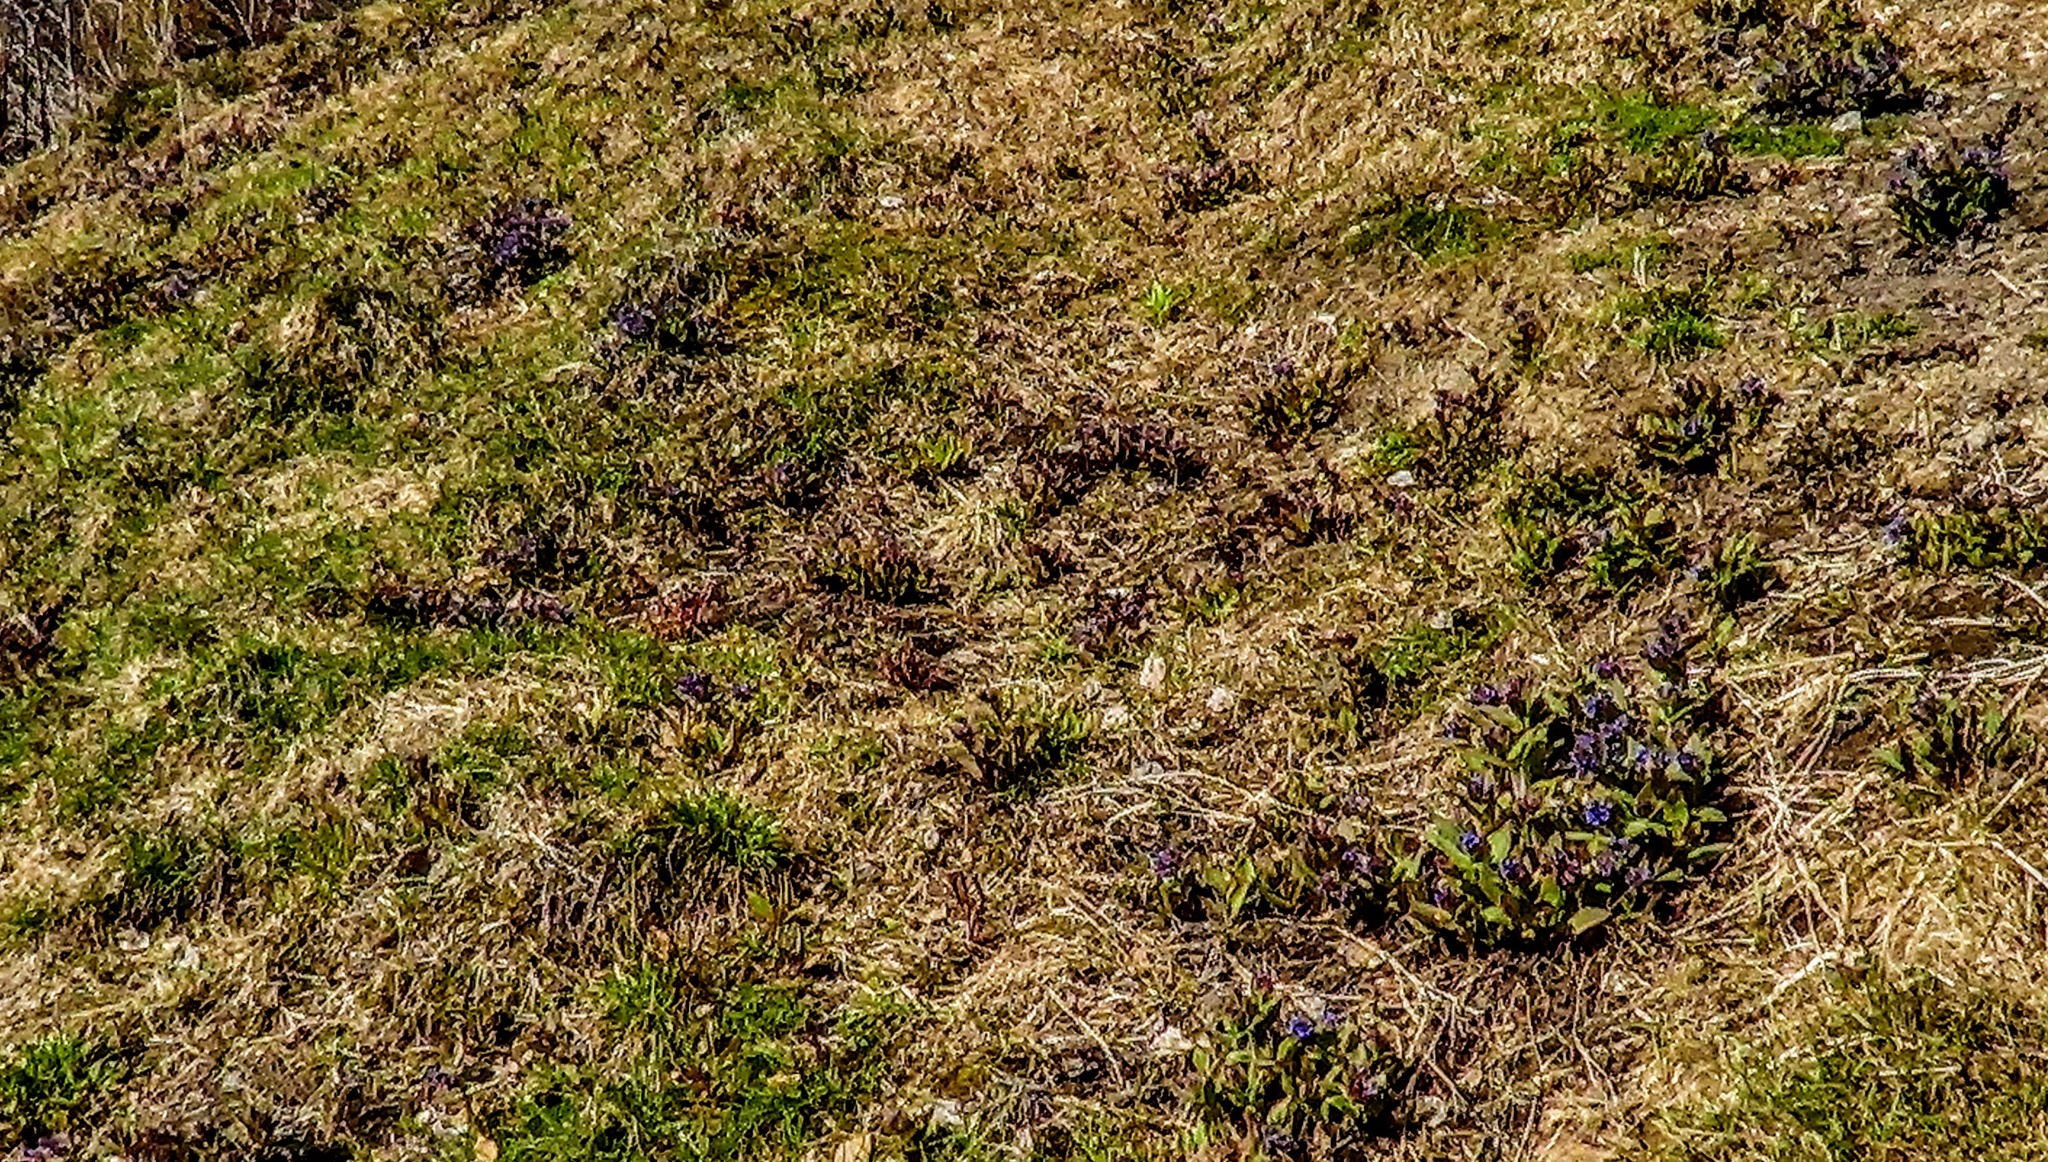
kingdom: Plantae
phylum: Tracheophyta
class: Magnoliopsida
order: Boraginales
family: Boraginaceae
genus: Pulmonaria
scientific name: Pulmonaria mollis
